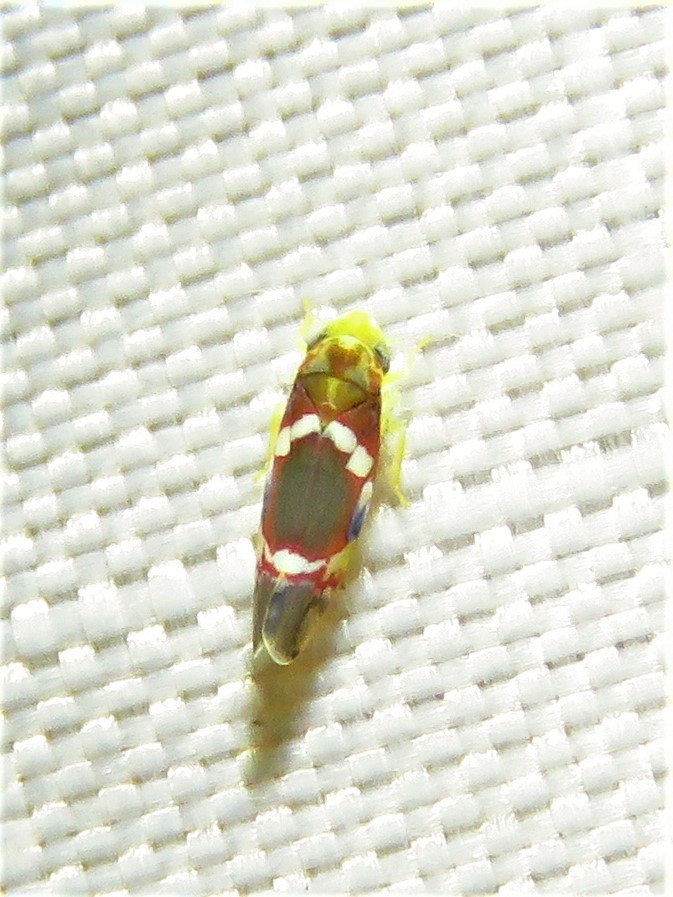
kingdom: Animalia
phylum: Arthropoda
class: Insecta
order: Hemiptera
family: Cicadellidae
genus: Erythroneura
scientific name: Erythroneura vitis
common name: Grapevine leafhopper
